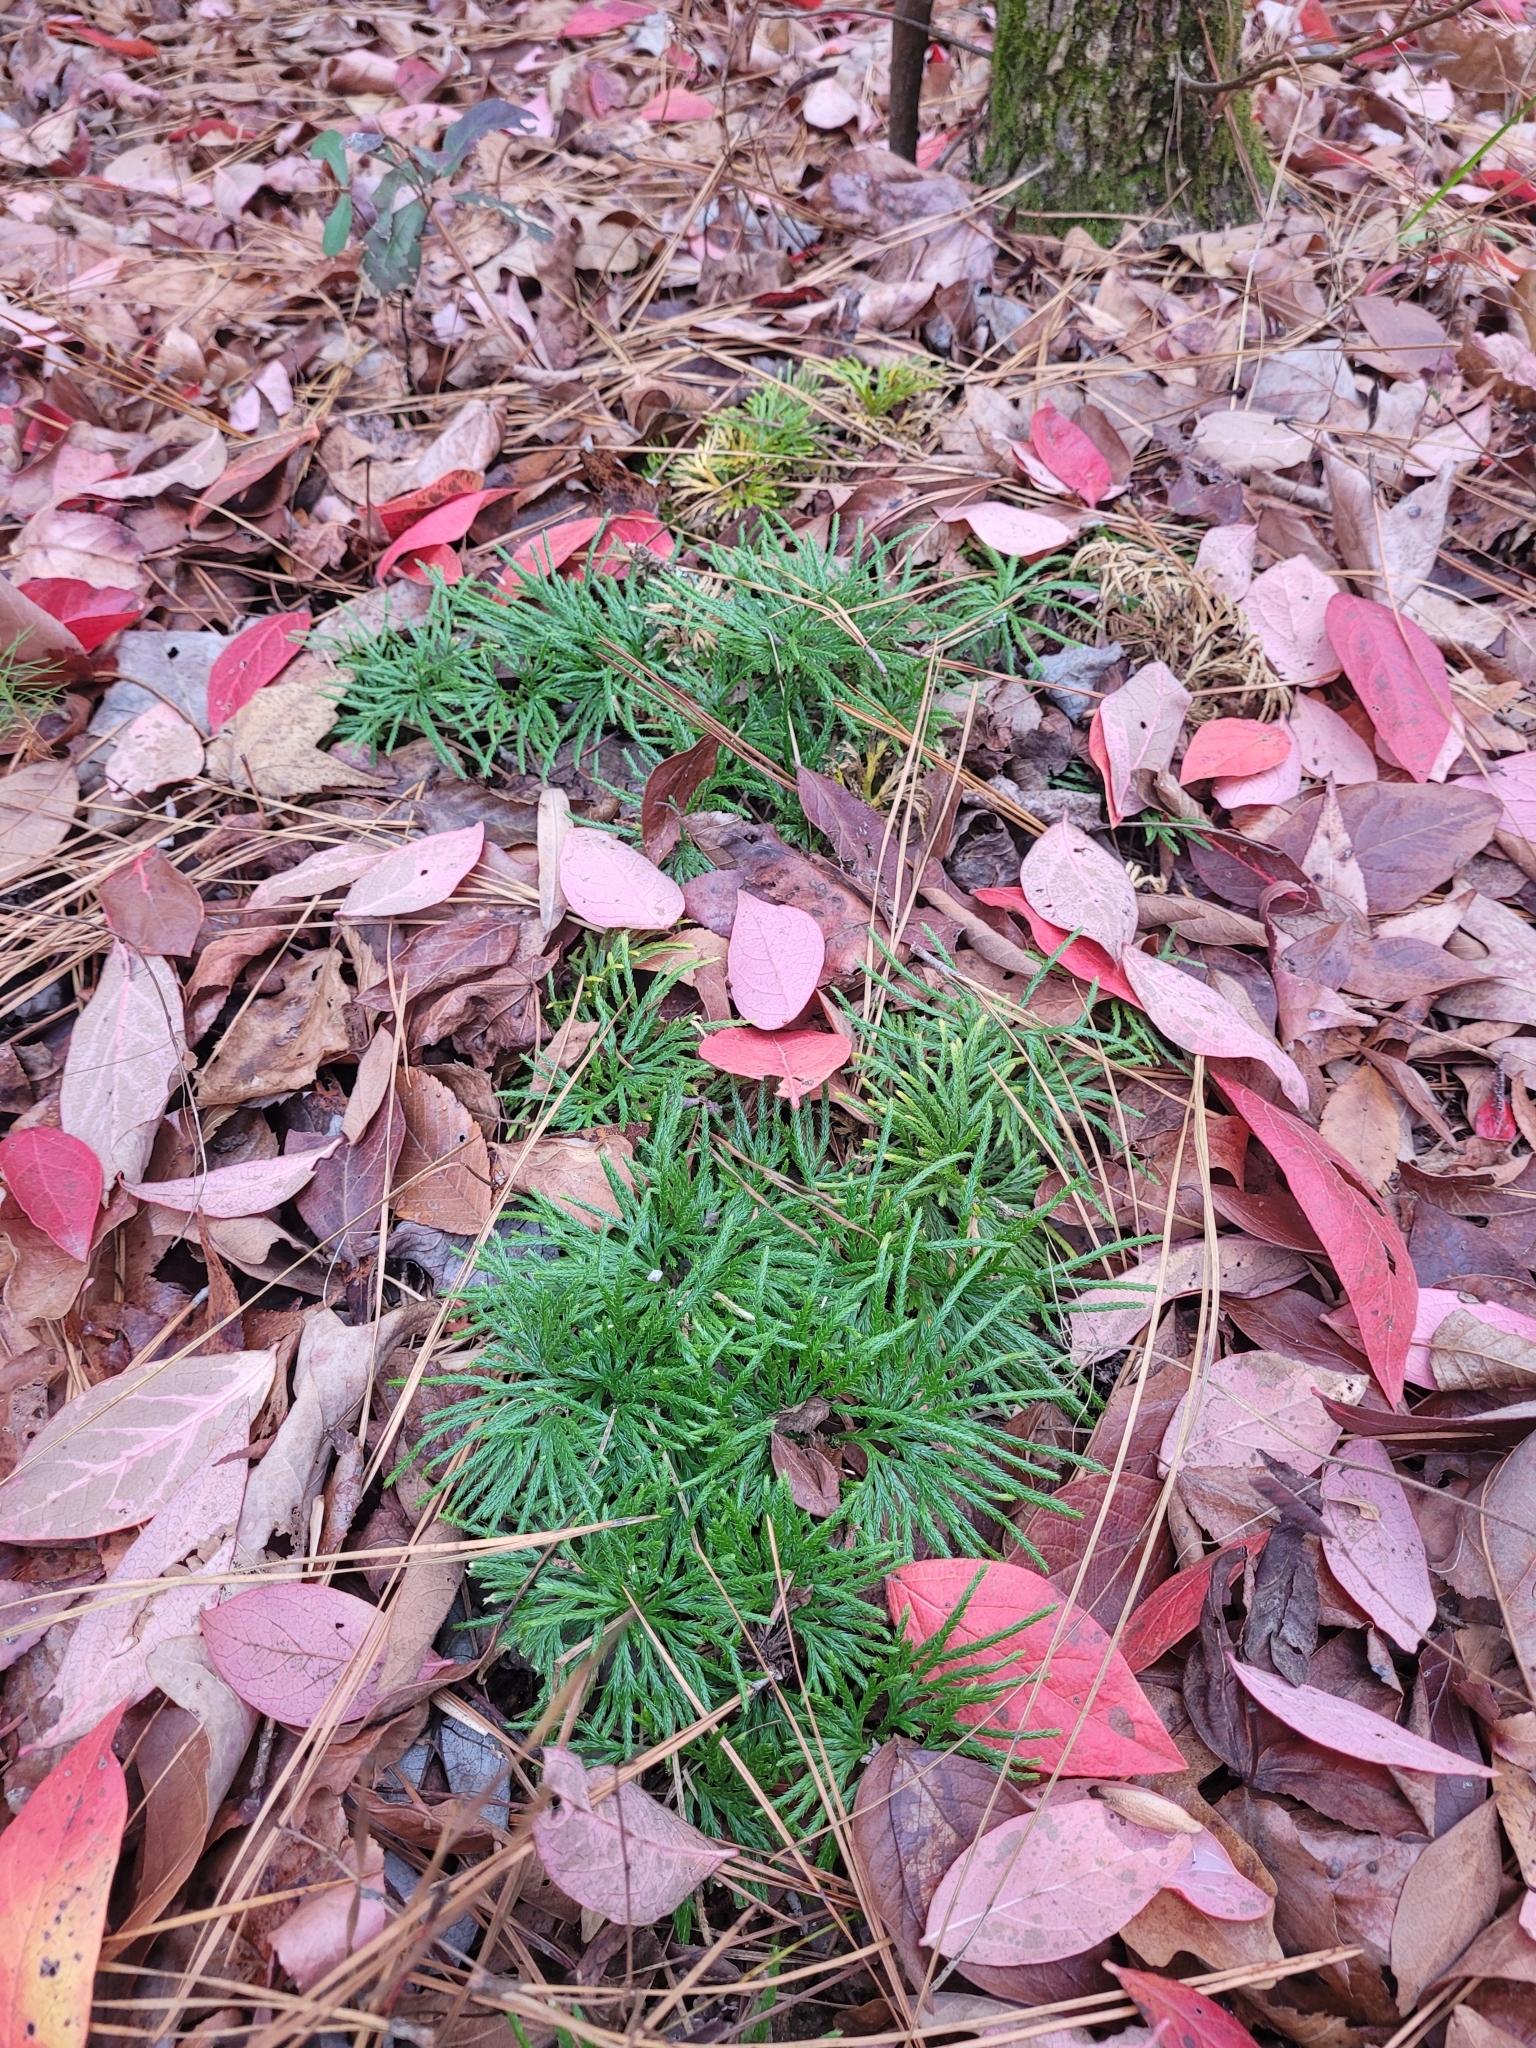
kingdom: Plantae
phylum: Tracheophyta
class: Lycopodiopsida
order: Lycopodiales
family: Lycopodiaceae
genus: Diphasiastrum
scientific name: Diphasiastrum digitatum
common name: Southern running-pine
